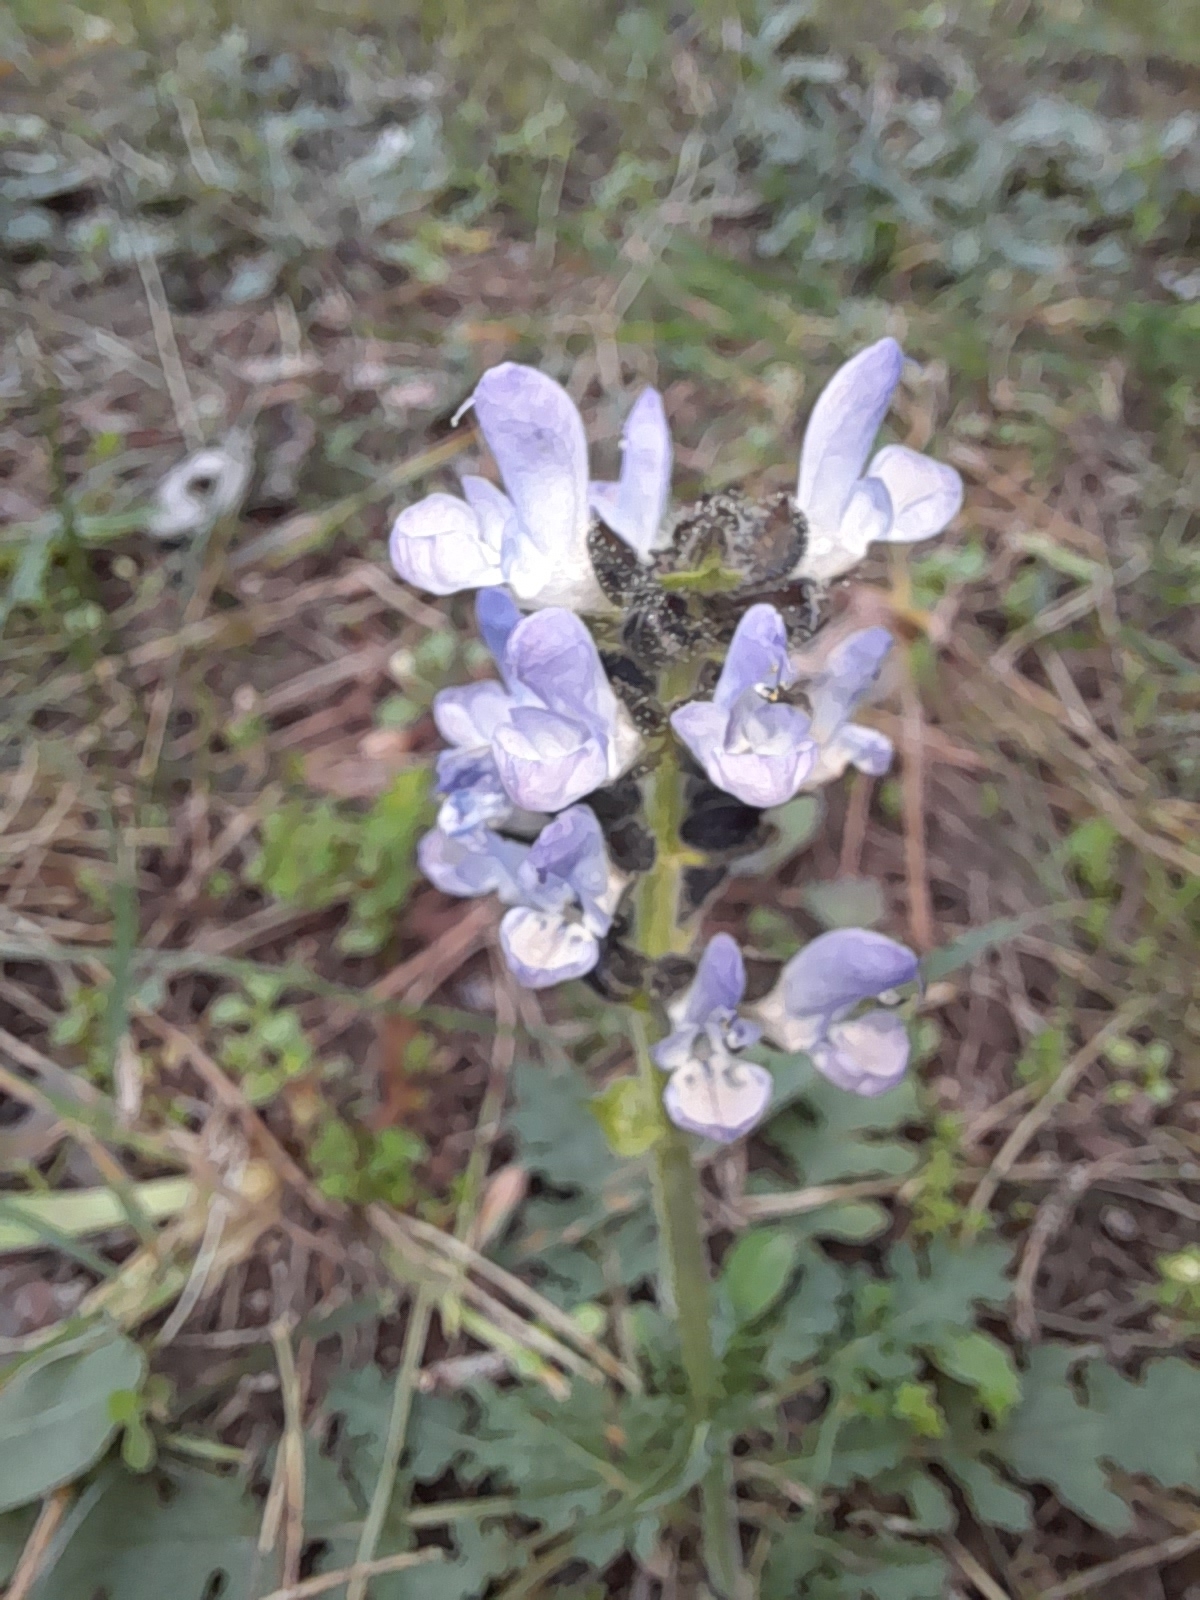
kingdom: Plantae
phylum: Tracheophyta
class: Magnoliopsida
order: Lamiales
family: Lamiaceae
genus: Salvia
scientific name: Salvia clandestina
